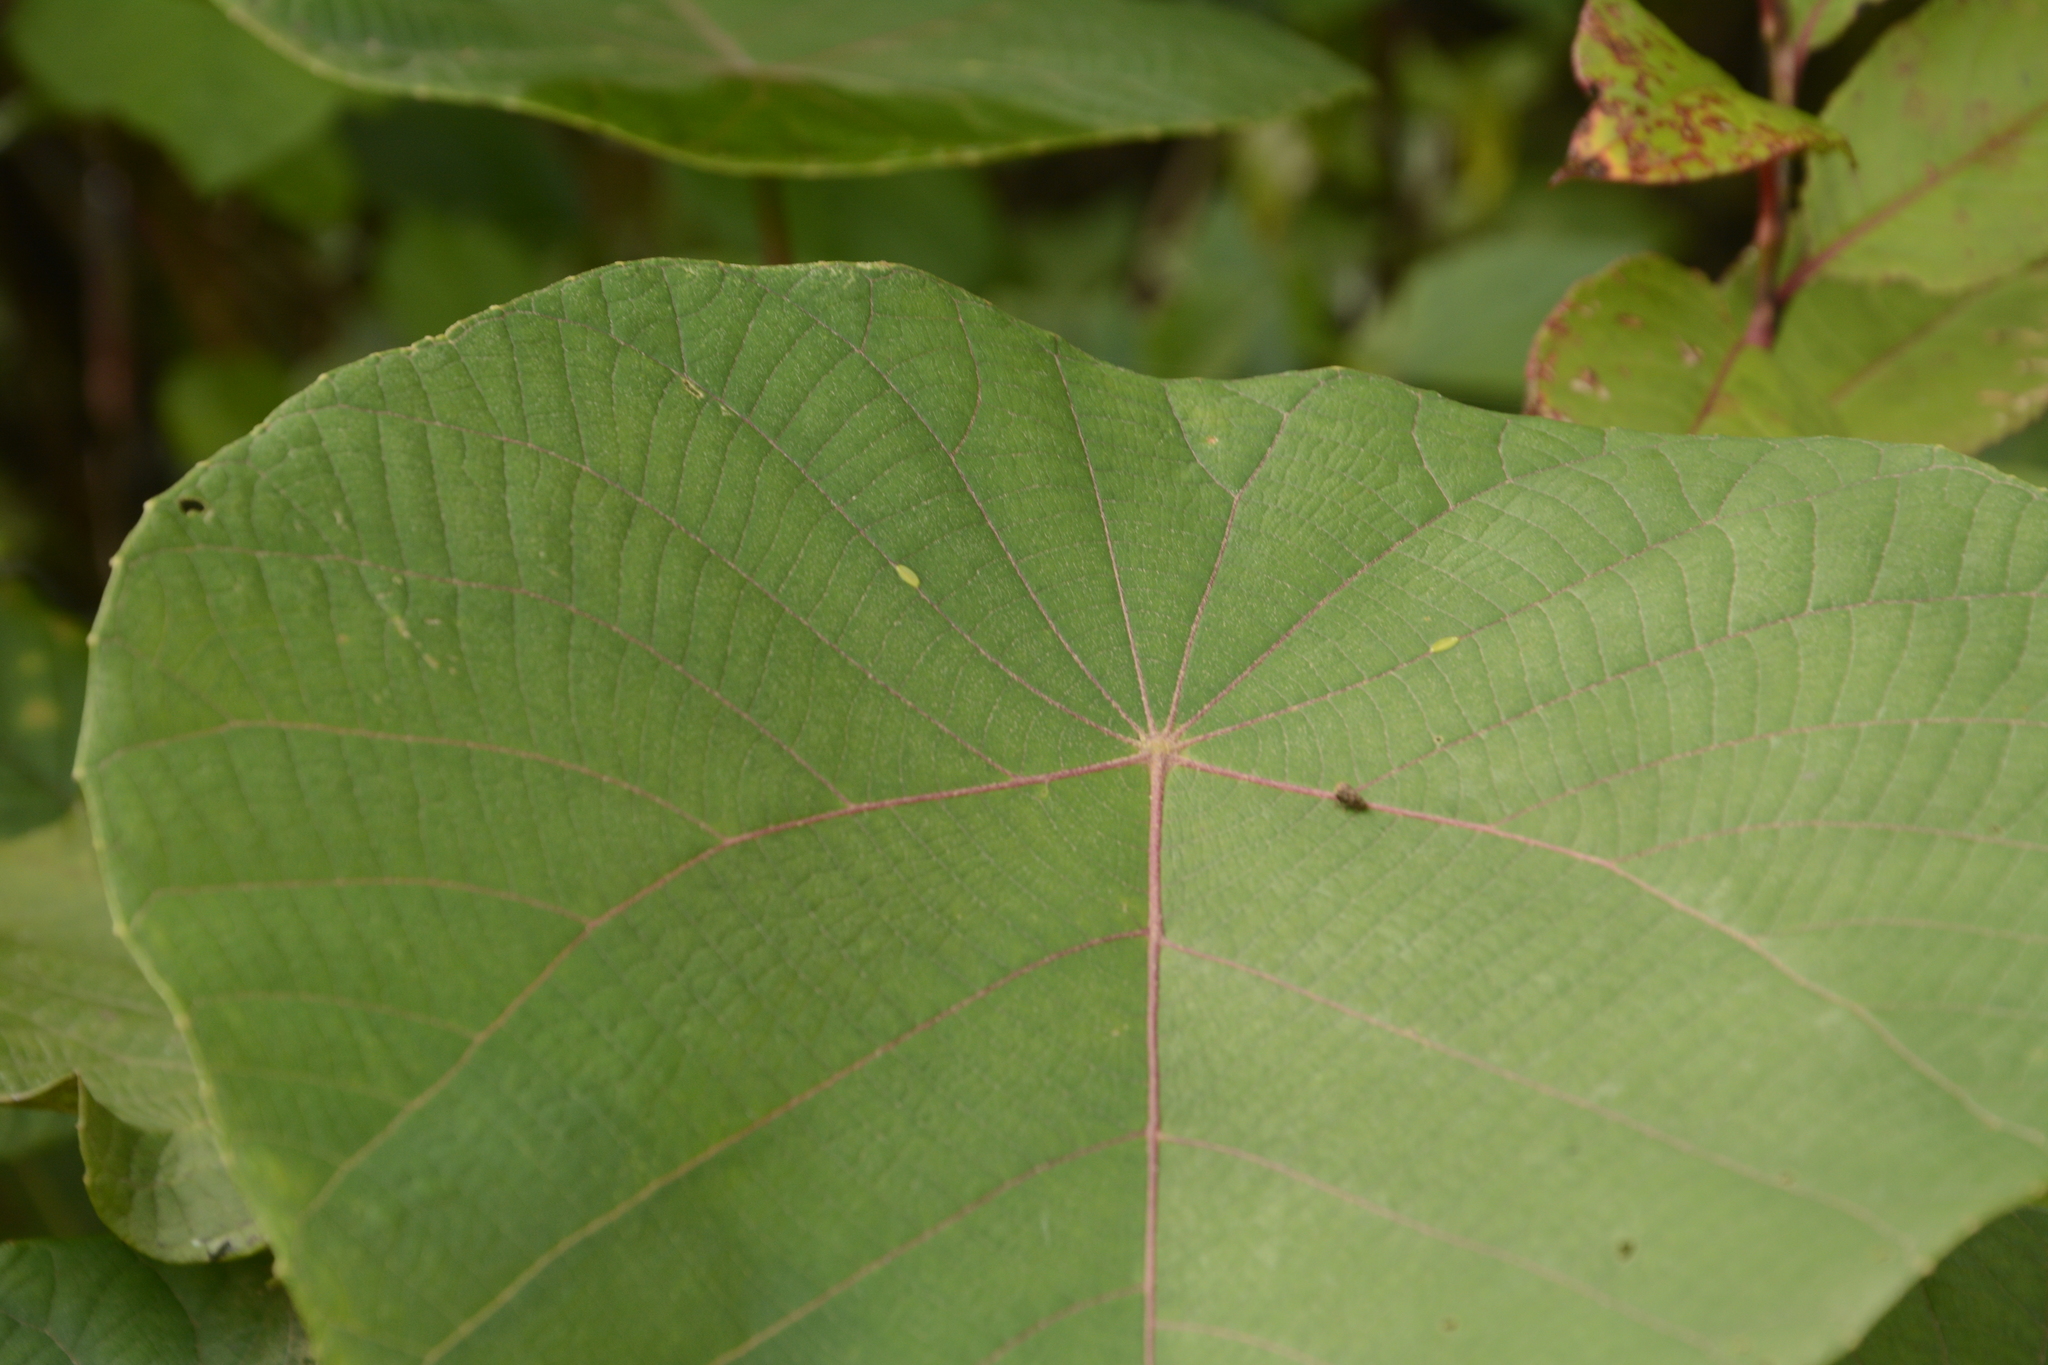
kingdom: Plantae
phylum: Tracheophyta
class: Magnoliopsida
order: Malpighiales
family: Euphorbiaceae
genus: Macaranga
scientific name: Macaranga indica
